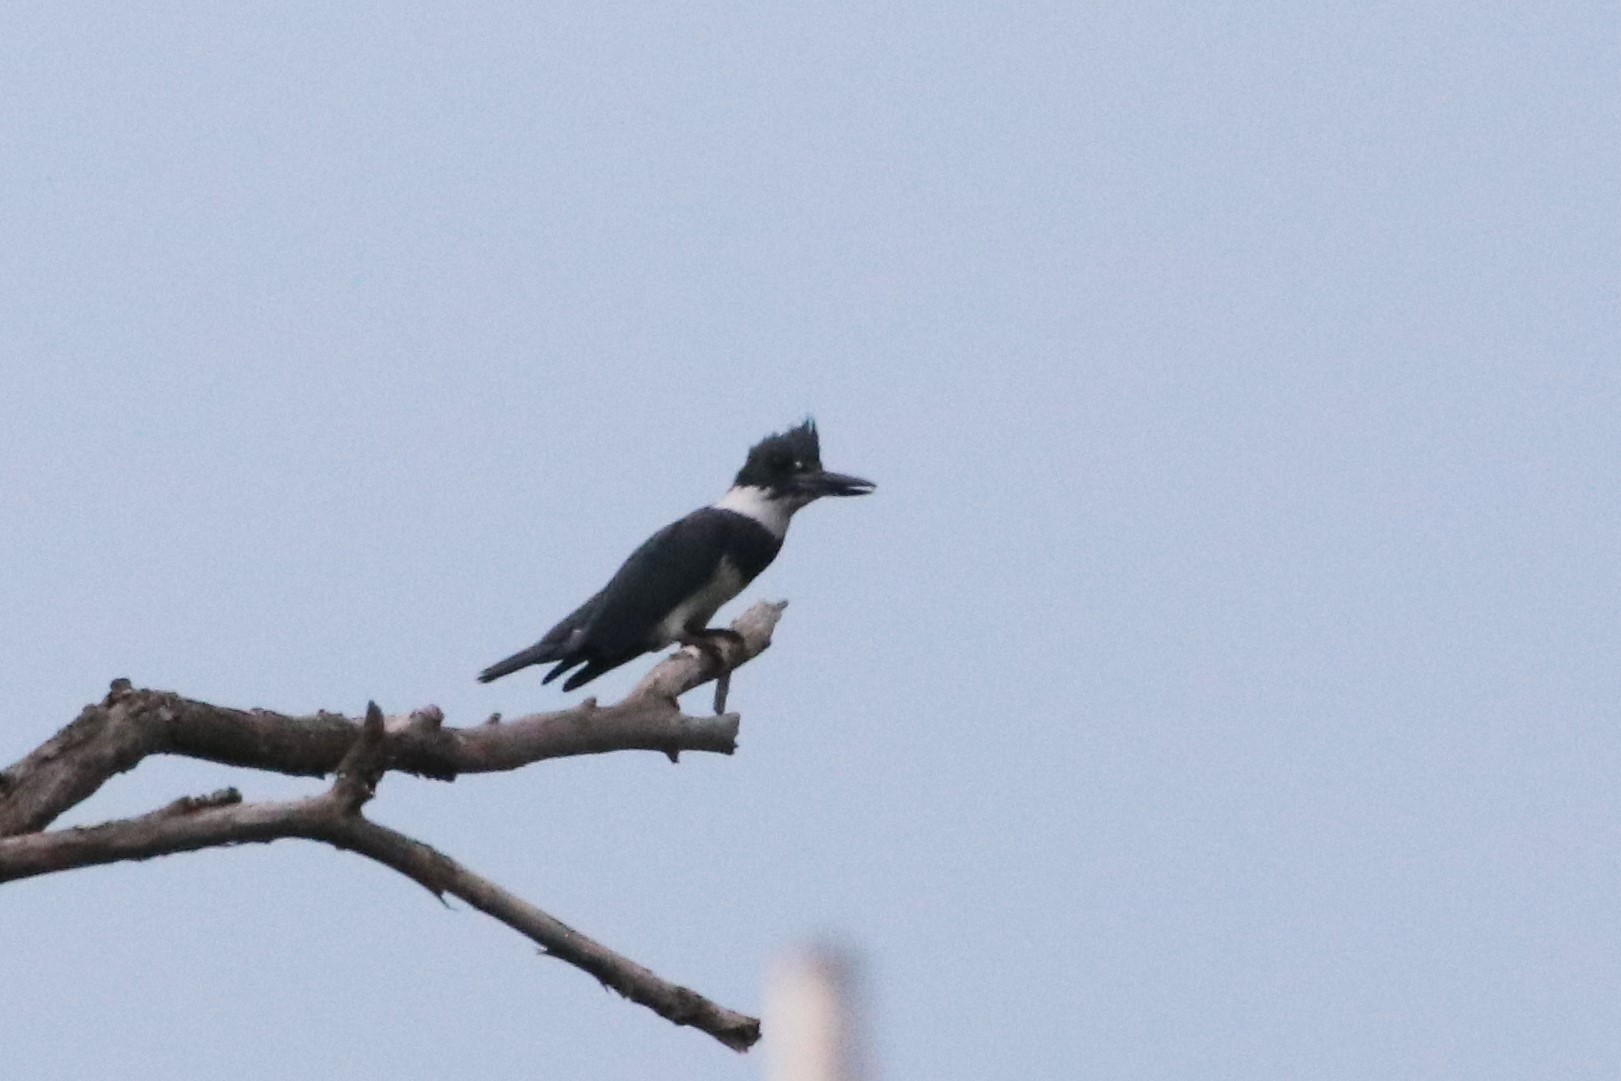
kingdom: Animalia
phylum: Chordata
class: Aves
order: Coraciiformes
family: Alcedinidae
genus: Megaceryle
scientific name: Megaceryle alcyon
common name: Belted kingfisher
